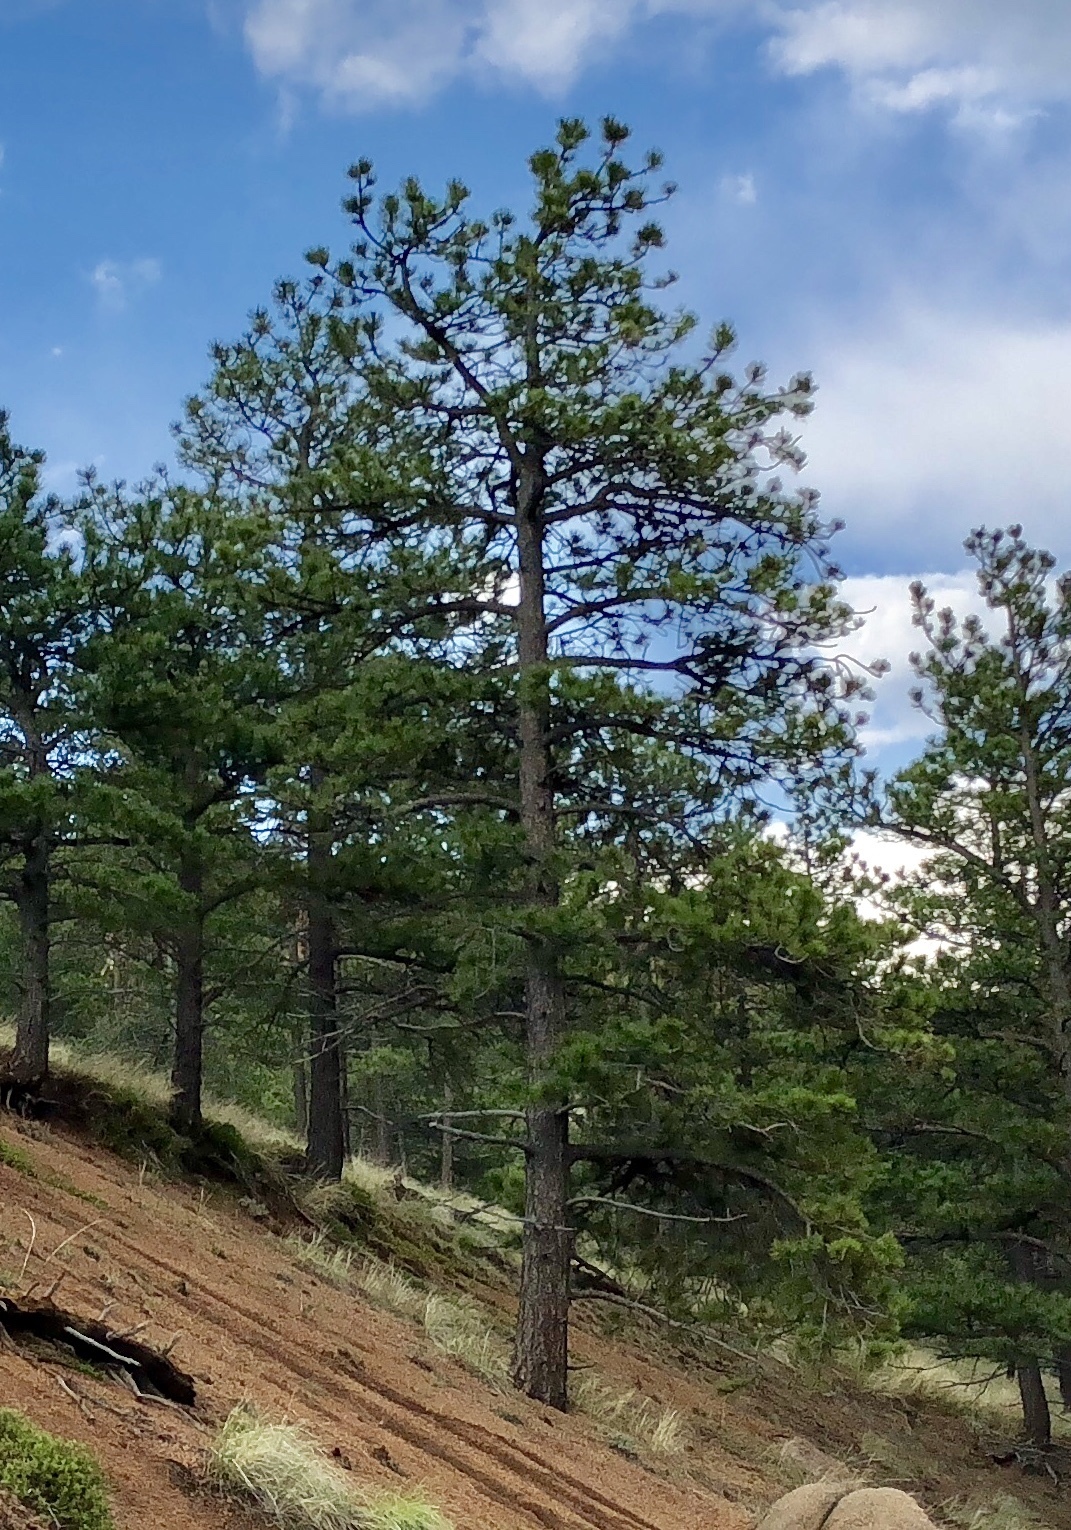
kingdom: Plantae
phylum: Tracheophyta
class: Pinopsida
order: Pinales
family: Pinaceae
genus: Pinus
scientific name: Pinus ponderosa
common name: Western yellow-pine
